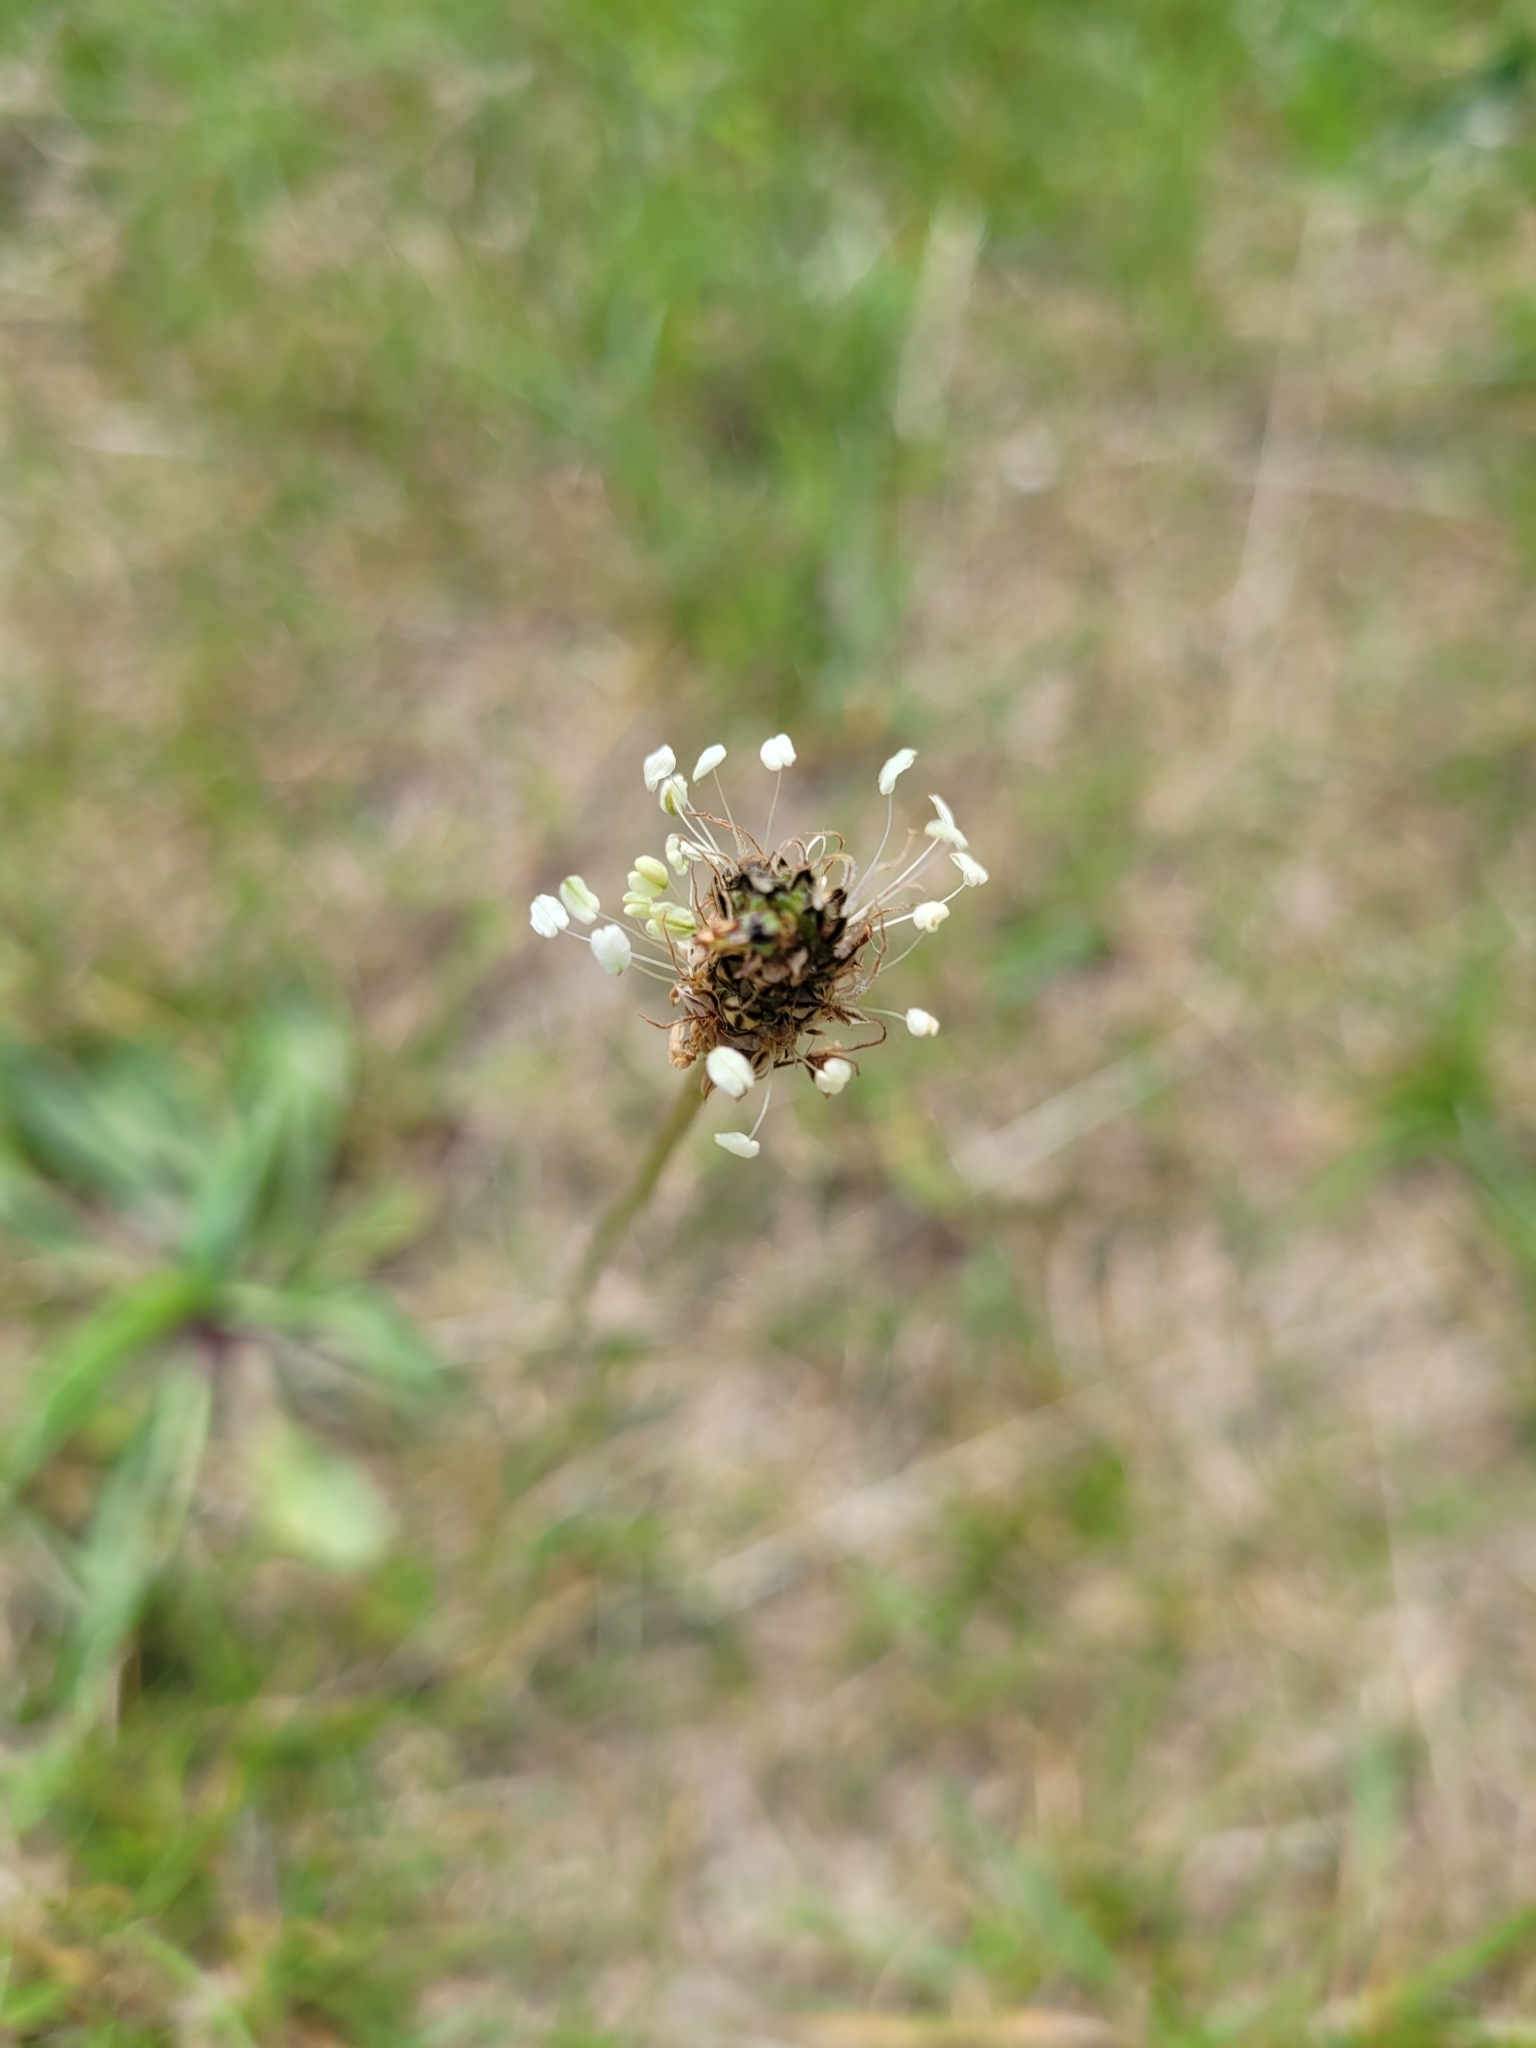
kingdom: Plantae
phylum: Tracheophyta
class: Magnoliopsida
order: Lamiales
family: Plantaginaceae
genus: Plantago
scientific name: Plantago lanceolata
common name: Ribwort plantain
